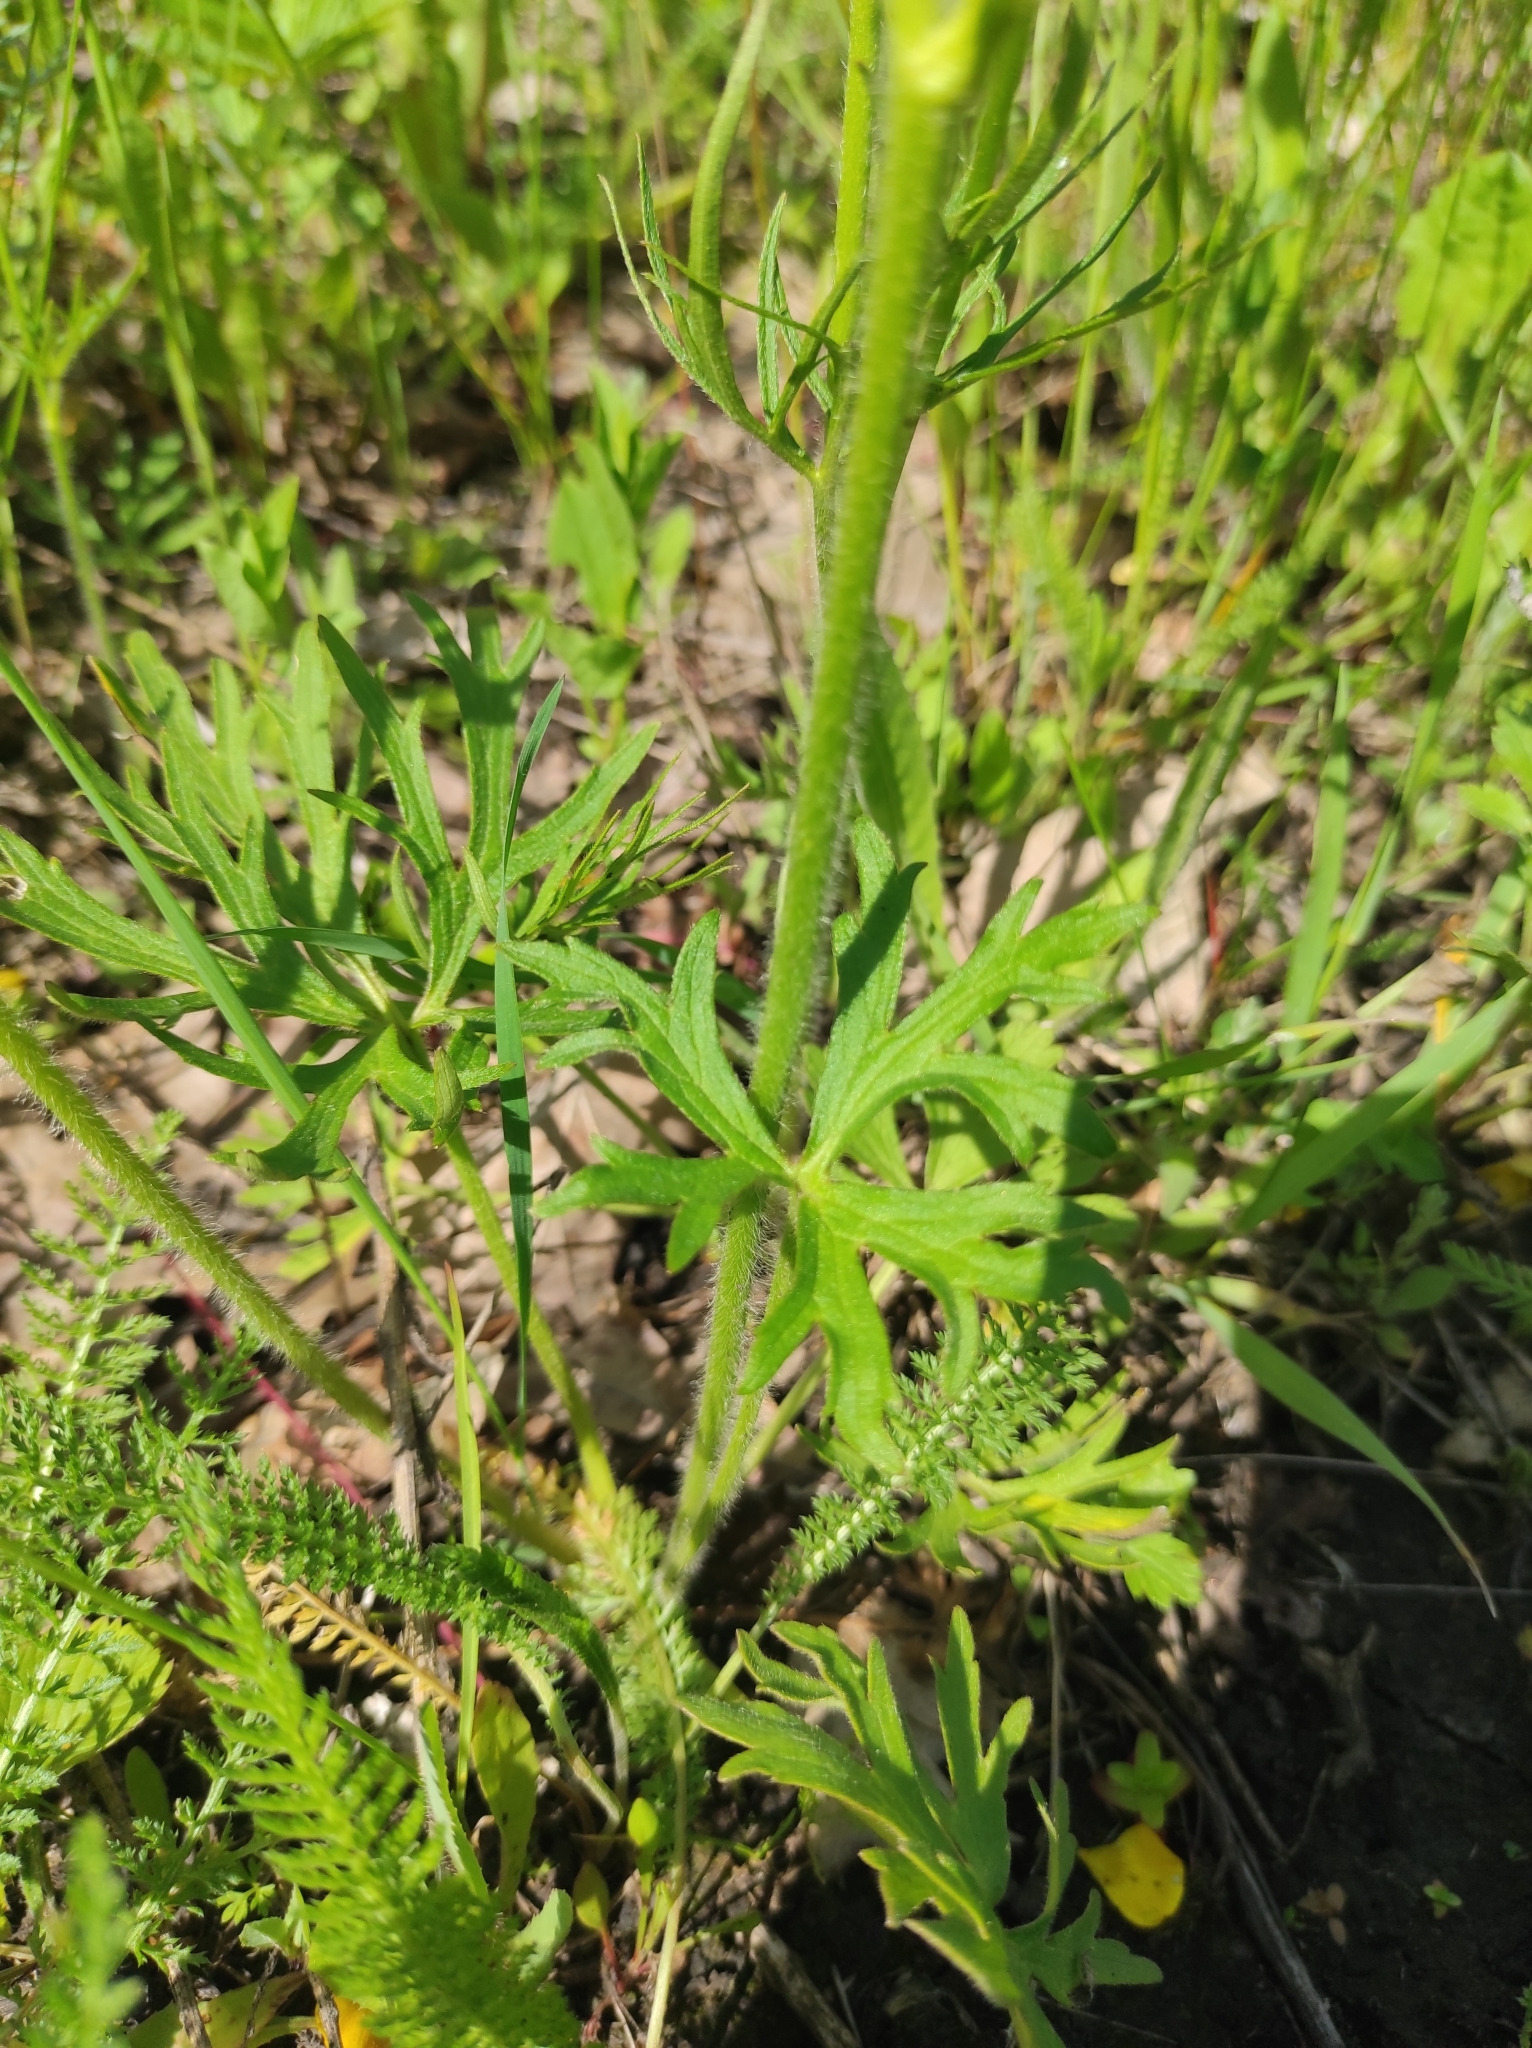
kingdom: Plantae
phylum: Tracheophyta
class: Magnoliopsida
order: Ranunculales
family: Ranunculaceae
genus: Ranunculus
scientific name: Ranunculus polyanthemos
